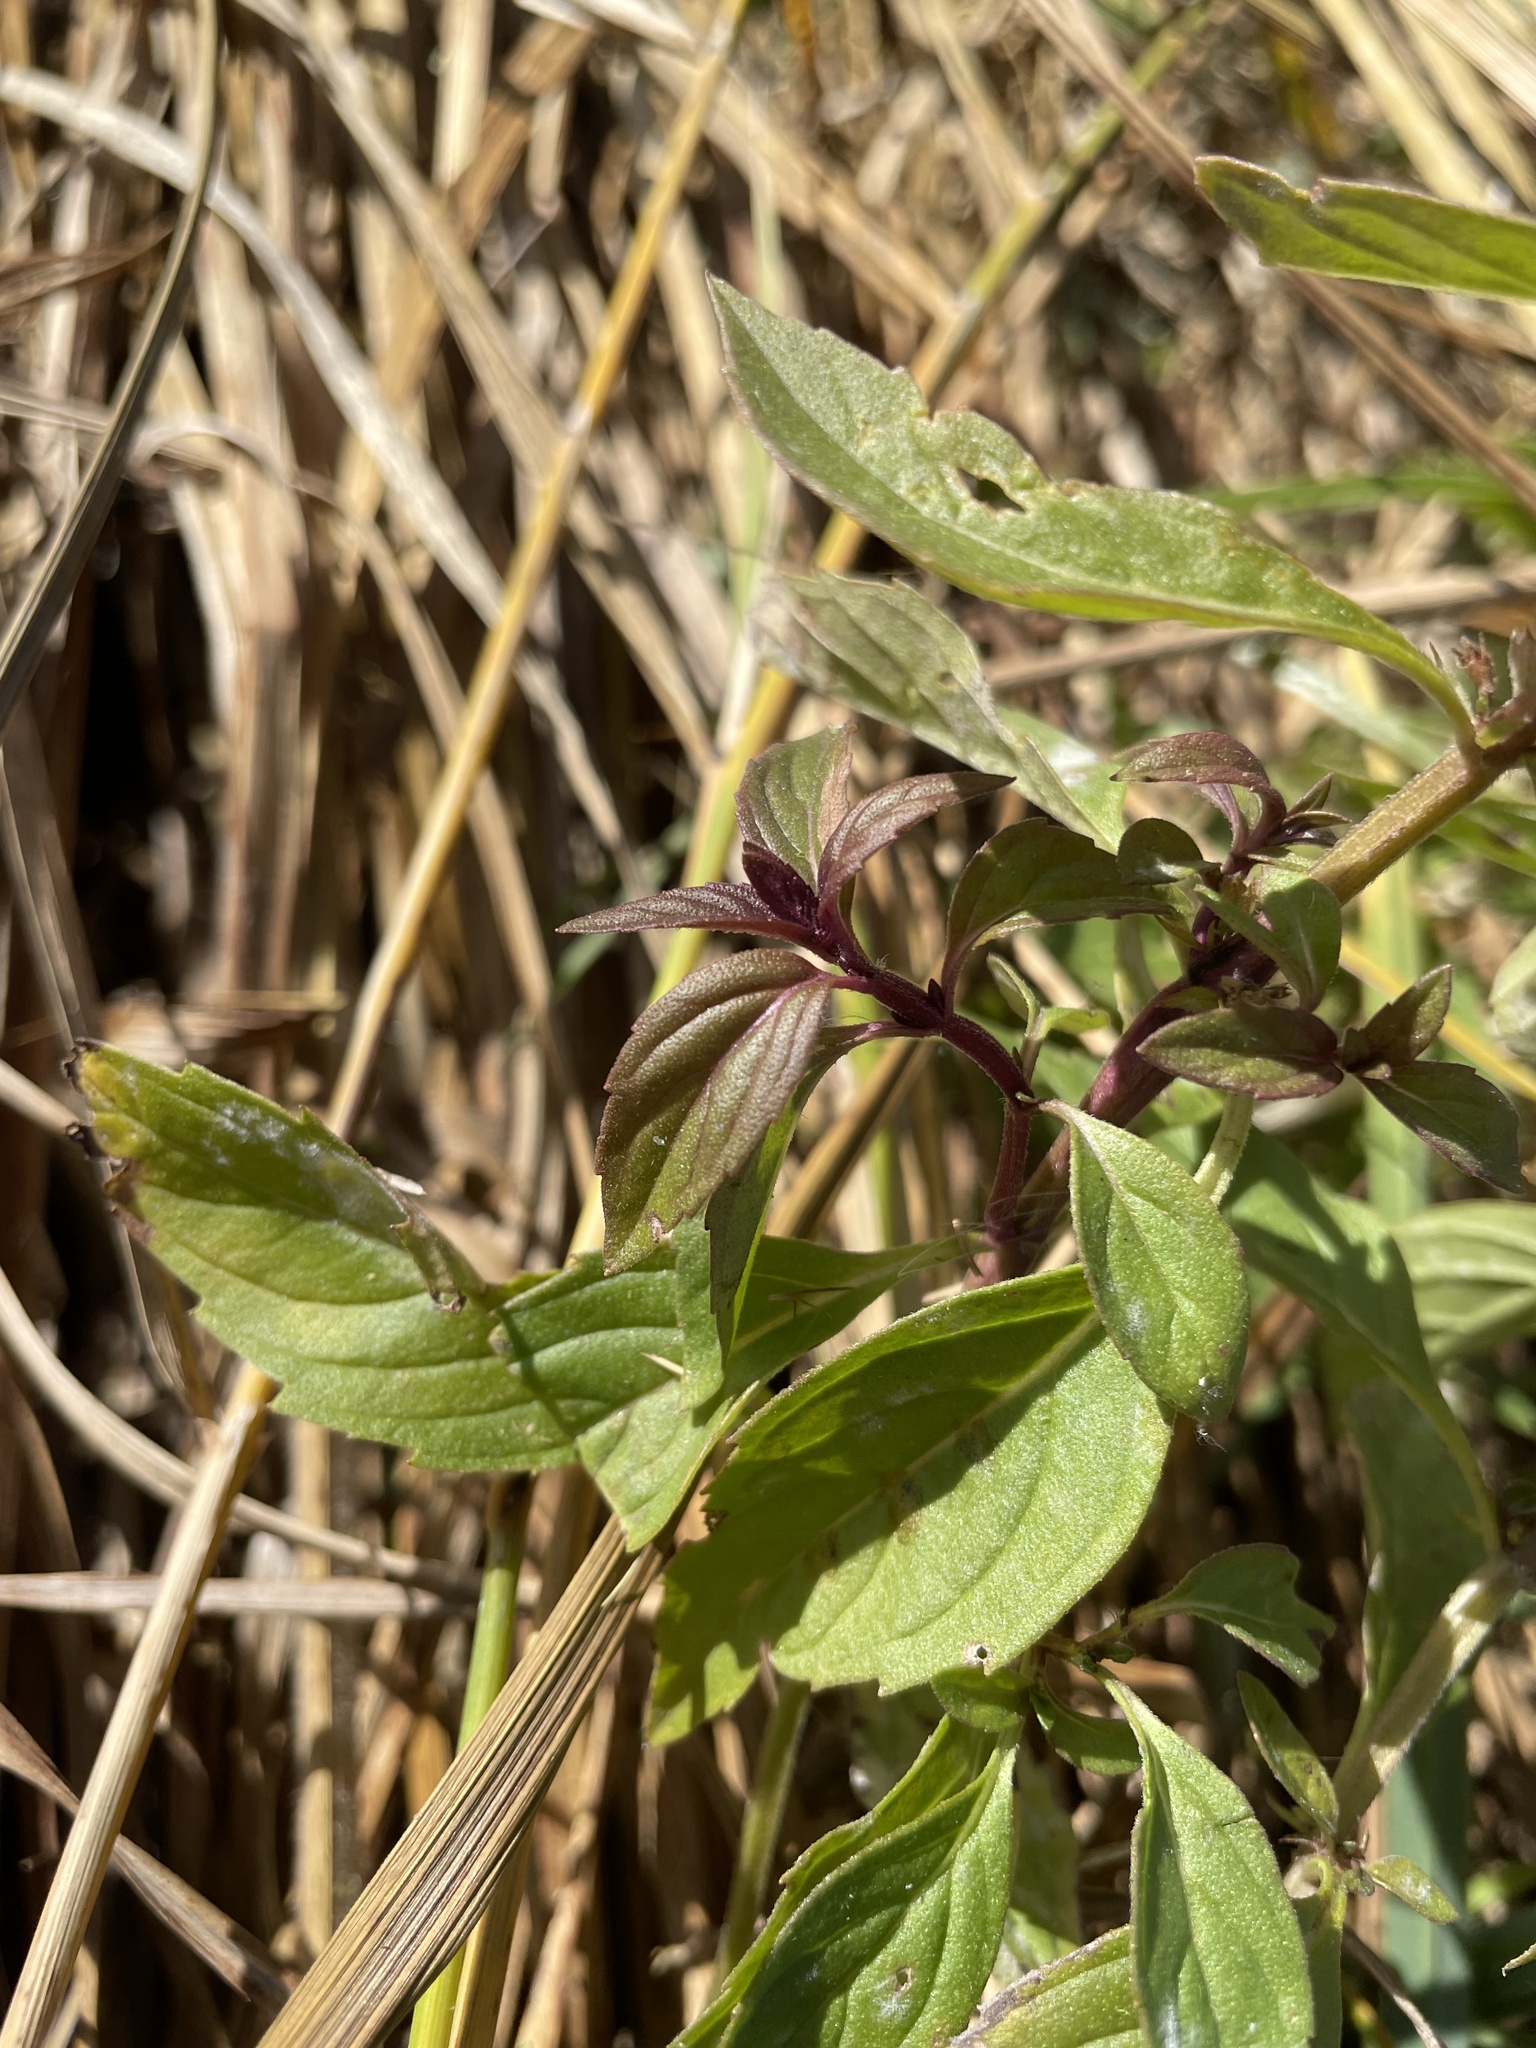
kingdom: Plantae
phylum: Tracheophyta
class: Magnoliopsida
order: Lamiales
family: Lamiaceae
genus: Mentha
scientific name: Mentha canadensis
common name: American corn mint
